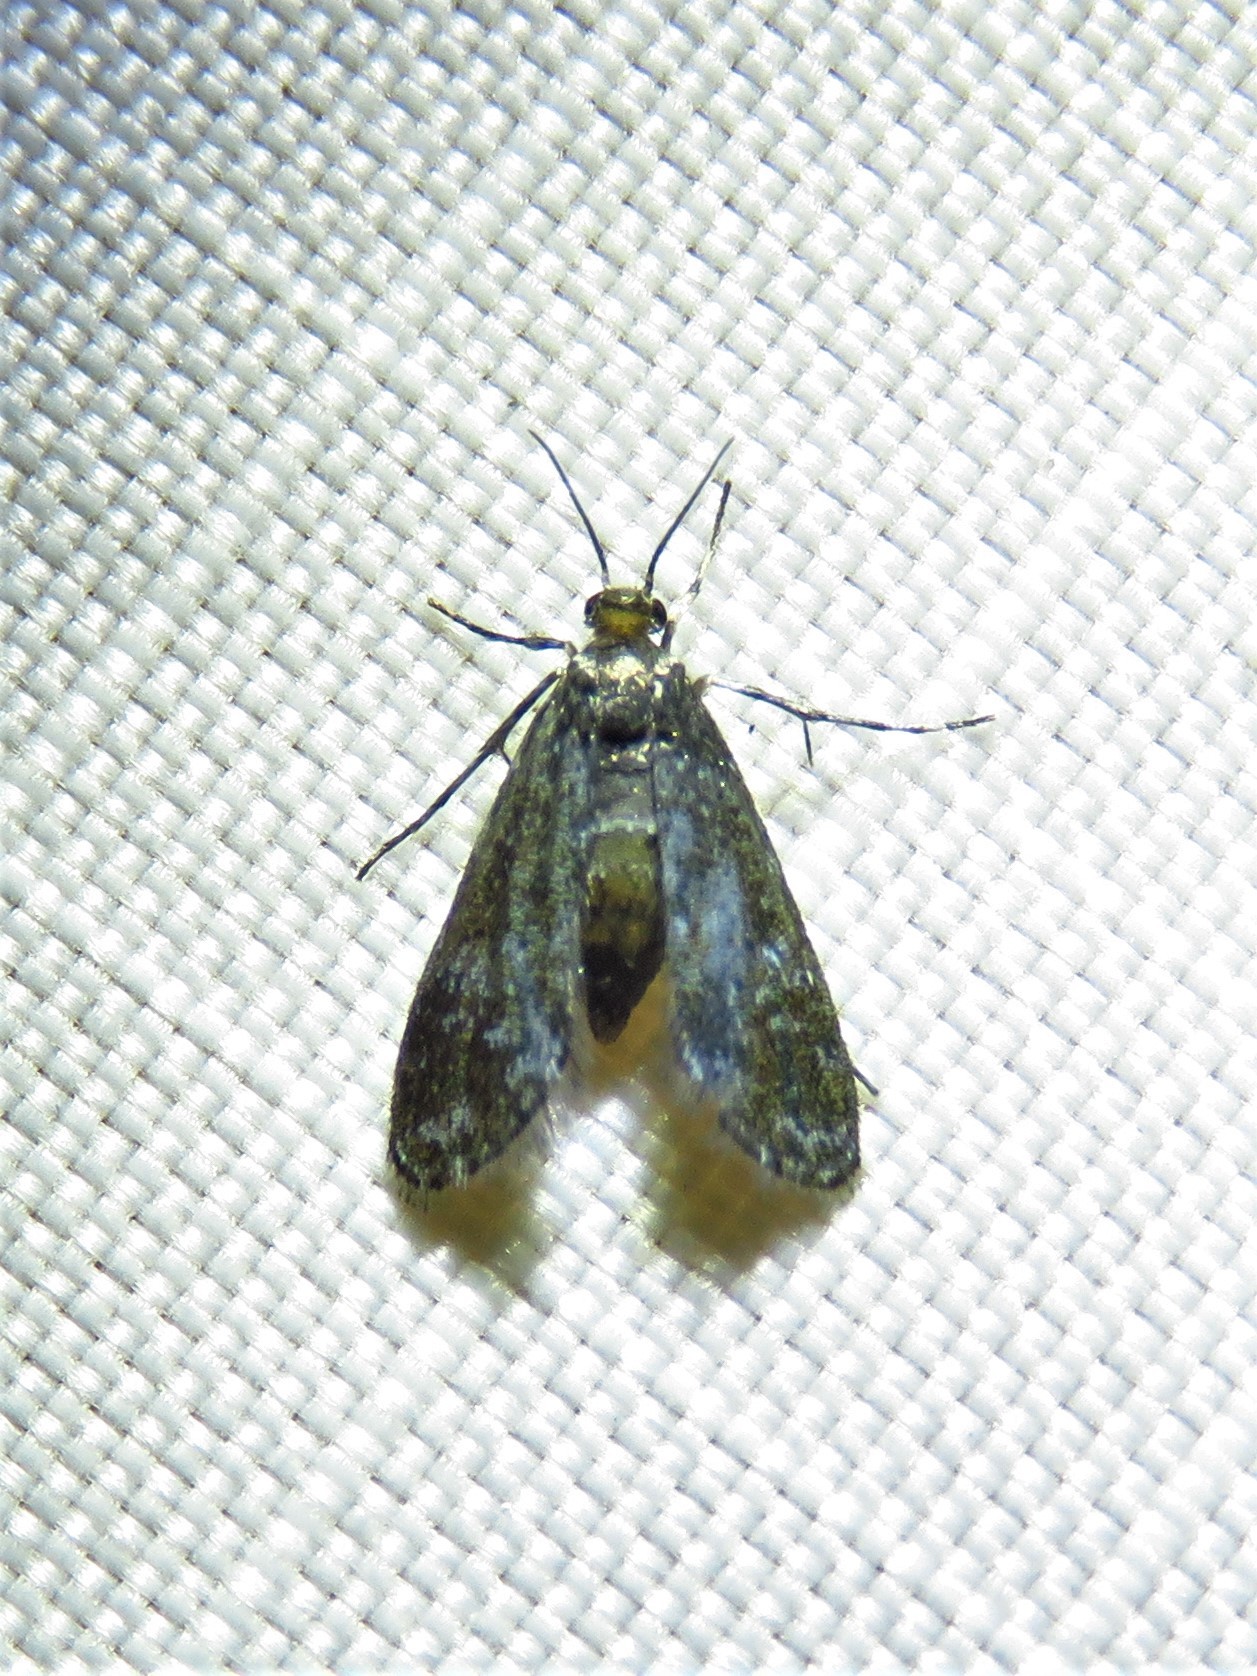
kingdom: Animalia
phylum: Arthropoda
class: Insecta
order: Lepidoptera
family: Crambidae
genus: Elophila
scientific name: Elophila tinealis
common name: Black duckweed moth
